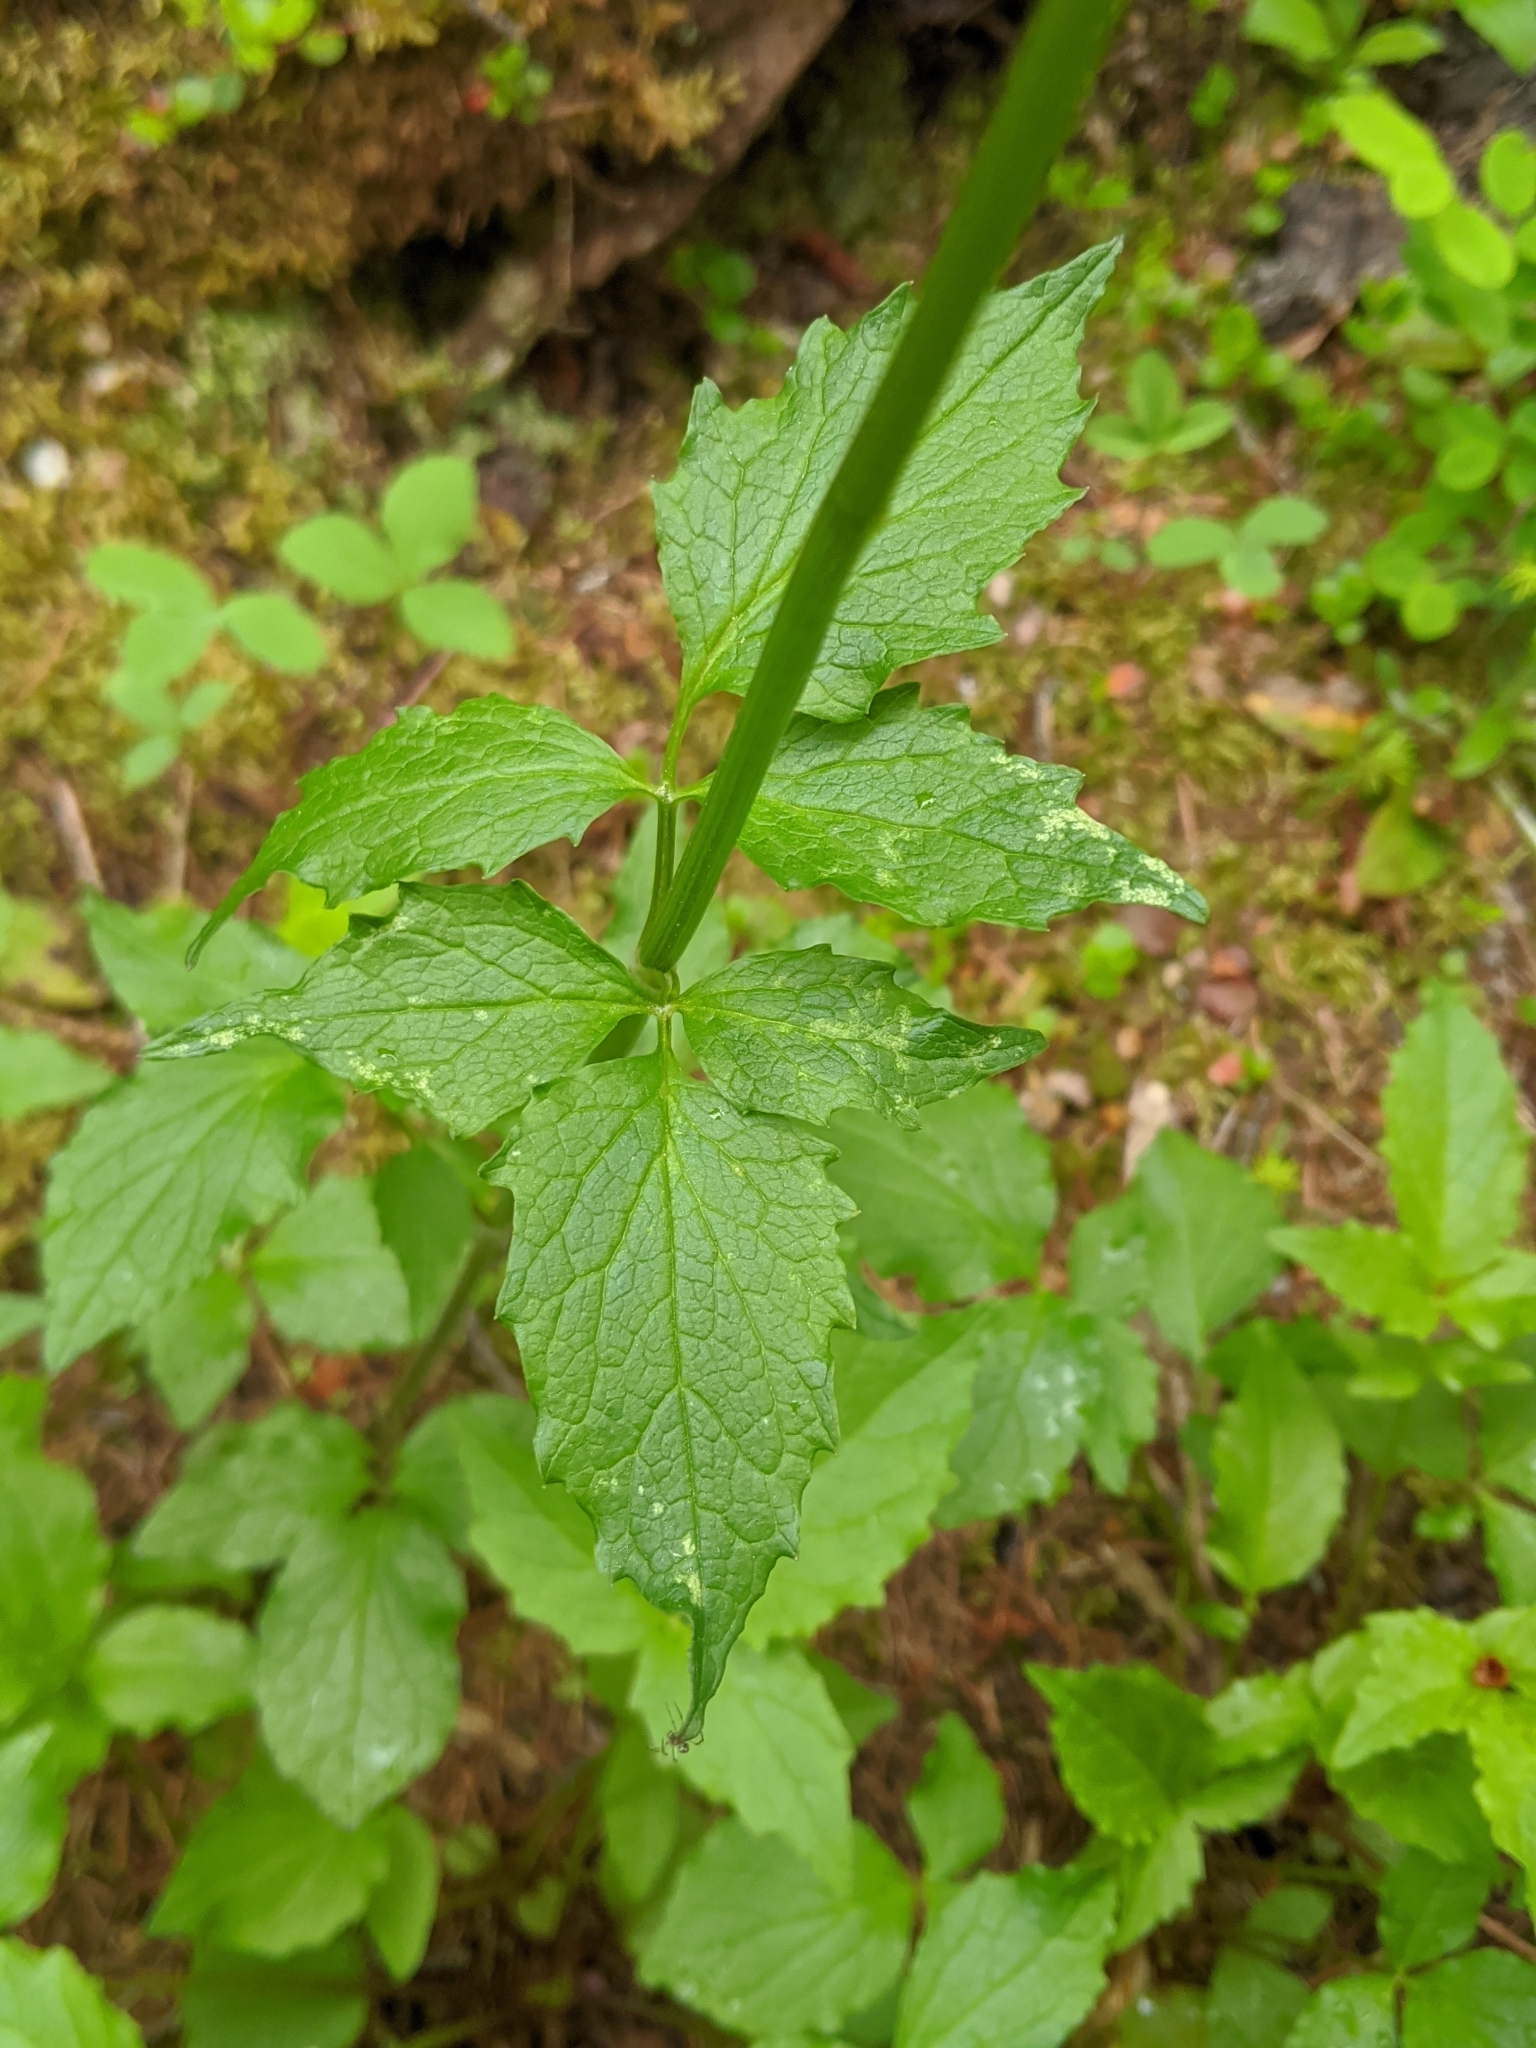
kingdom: Plantae
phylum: Tracheophyta
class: Magnoliopsida
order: Dipsacales
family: Caprifoliaceae
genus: Valeriana
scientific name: Valeriana sitchensis
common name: Pacific valerian
